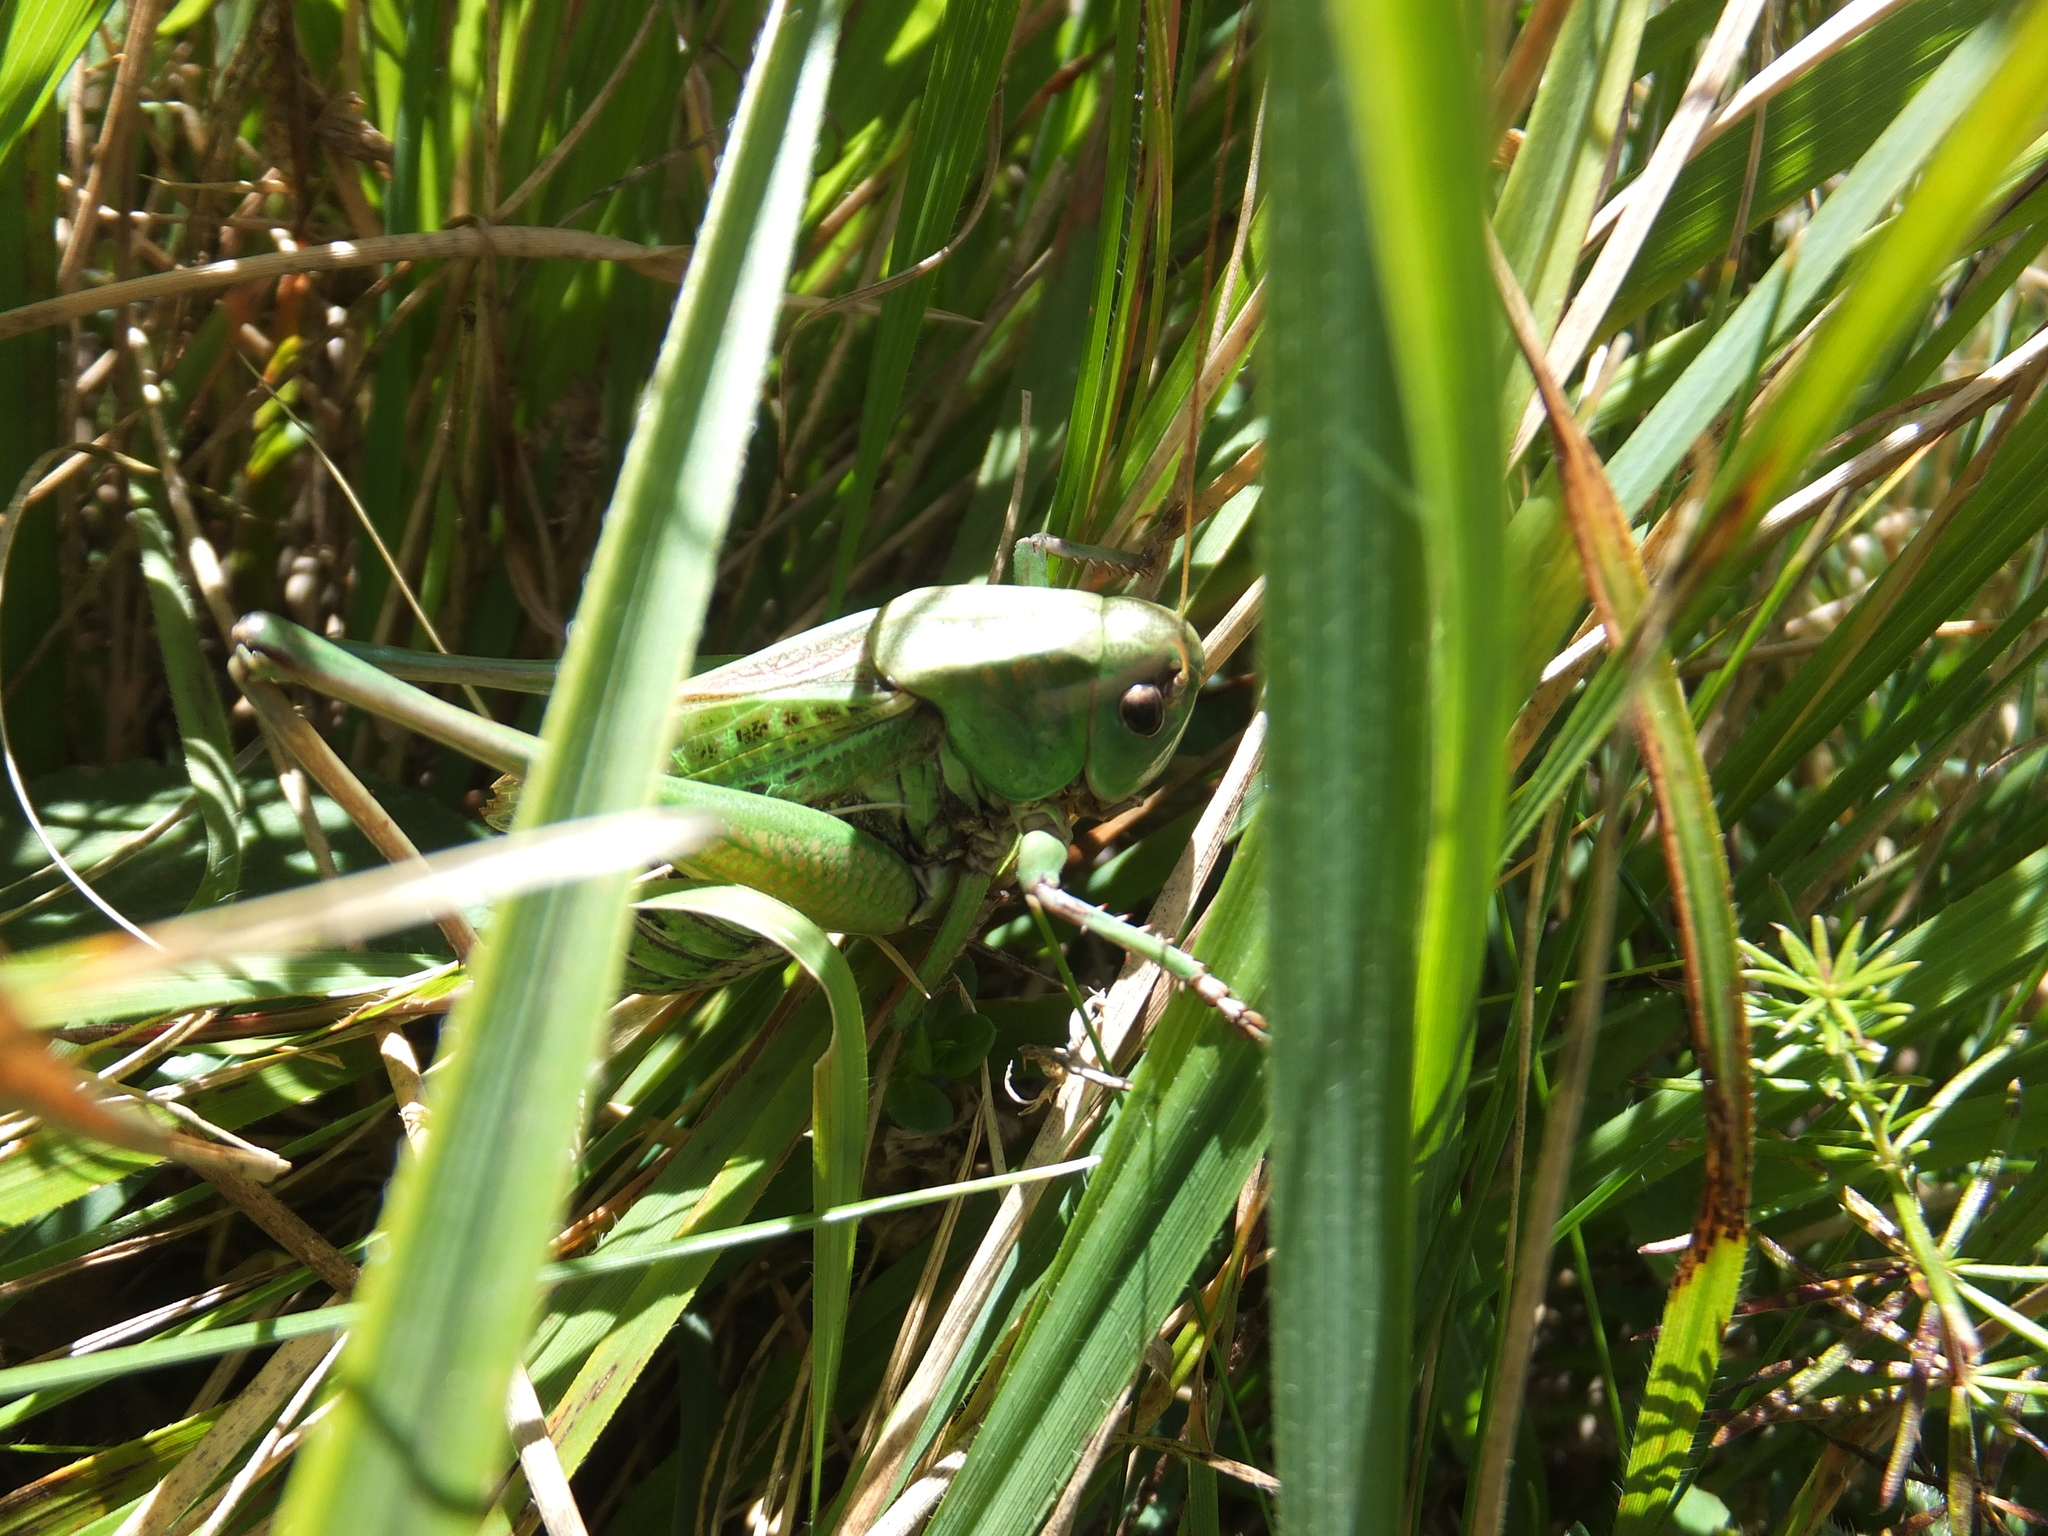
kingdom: Animalia
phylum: Arthropoda
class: Insecta
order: Orthoptera
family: Tettigoniidae
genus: Decticus
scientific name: Decticus verrucivorus
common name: Wart-biter
